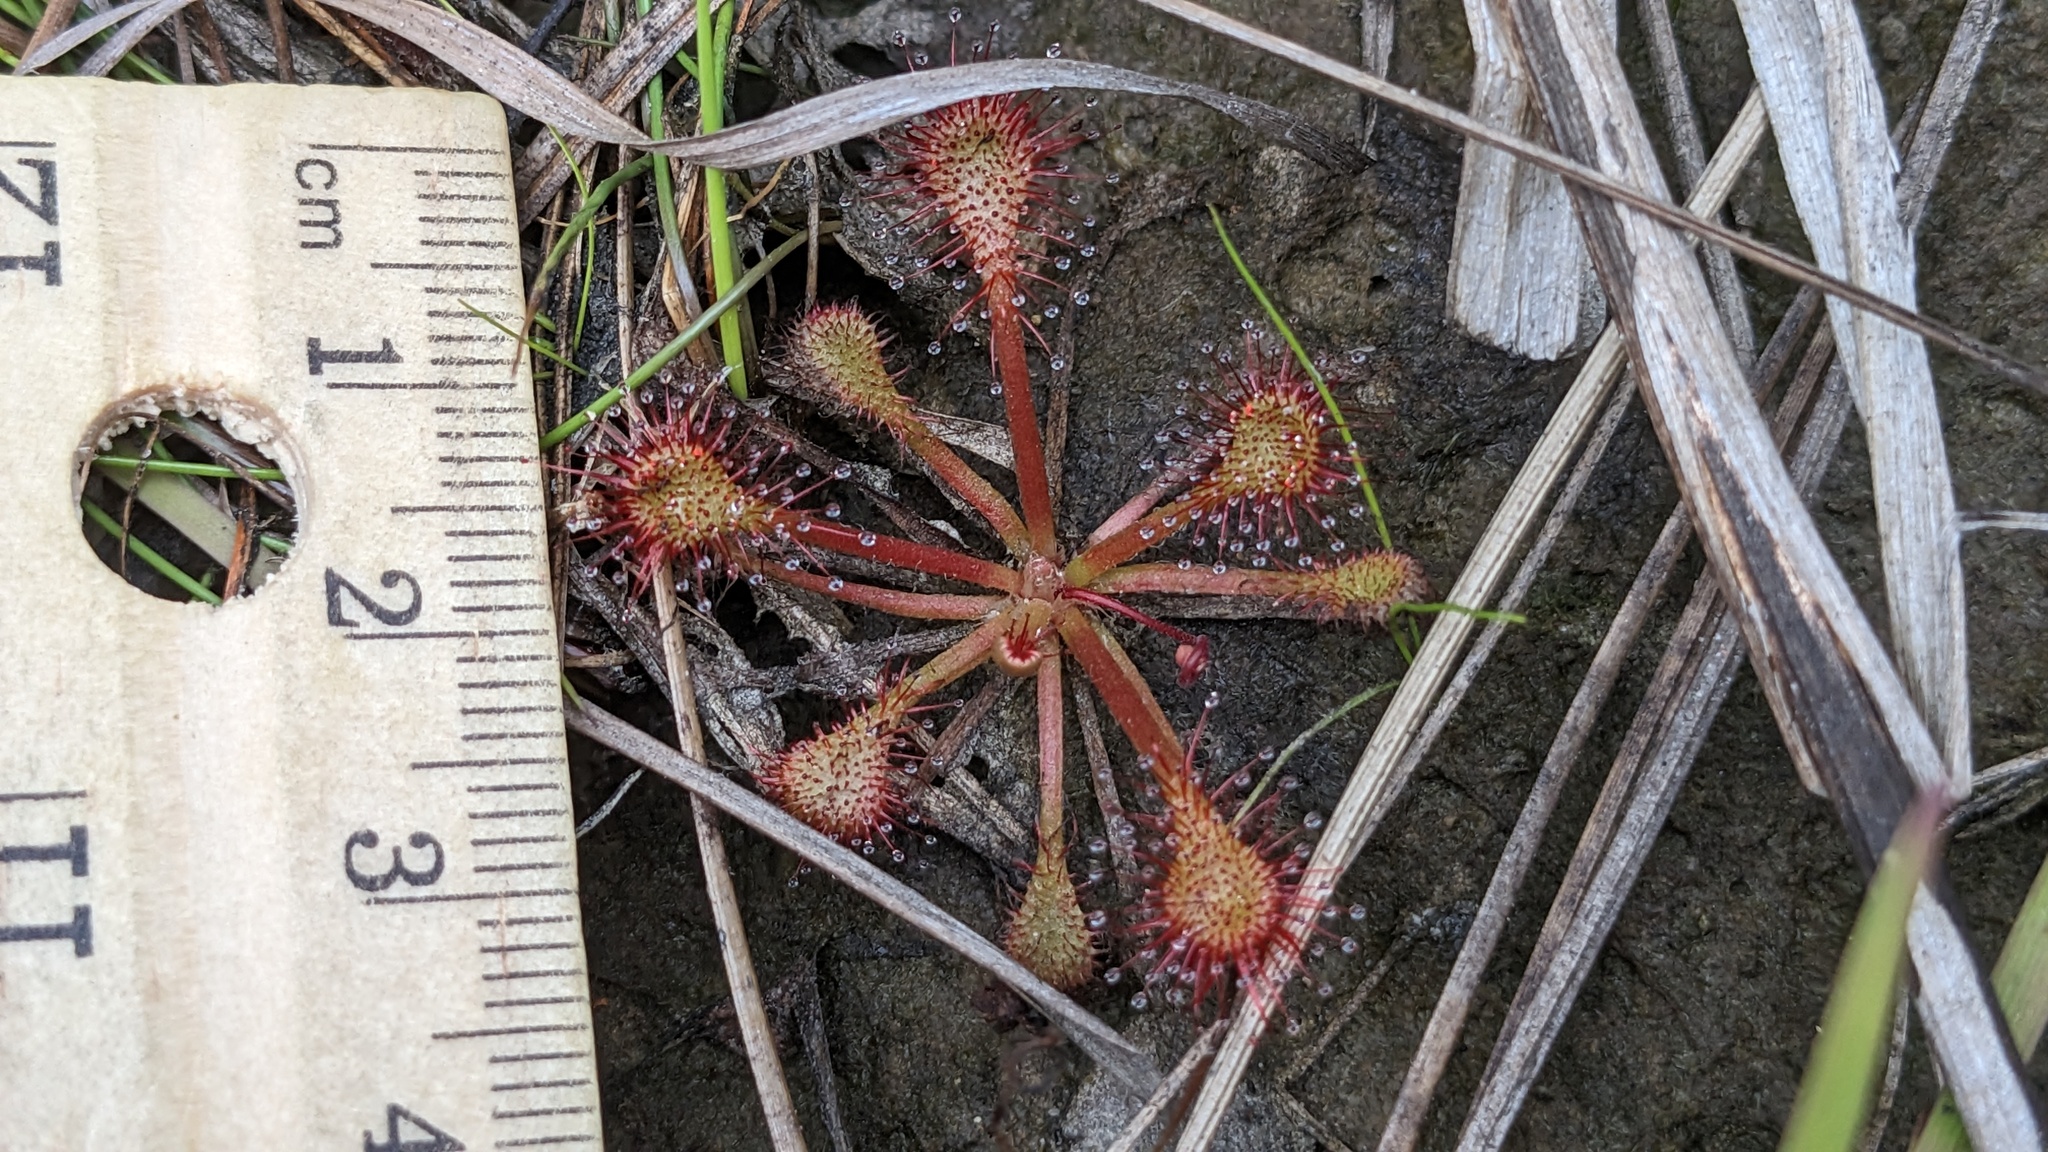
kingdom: Plantae
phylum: Tracheophyta
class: Magnoliopsida
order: Caryophyllales
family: Droseraceae
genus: Drosera
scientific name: Drosera capillaris
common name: Pink sundew
